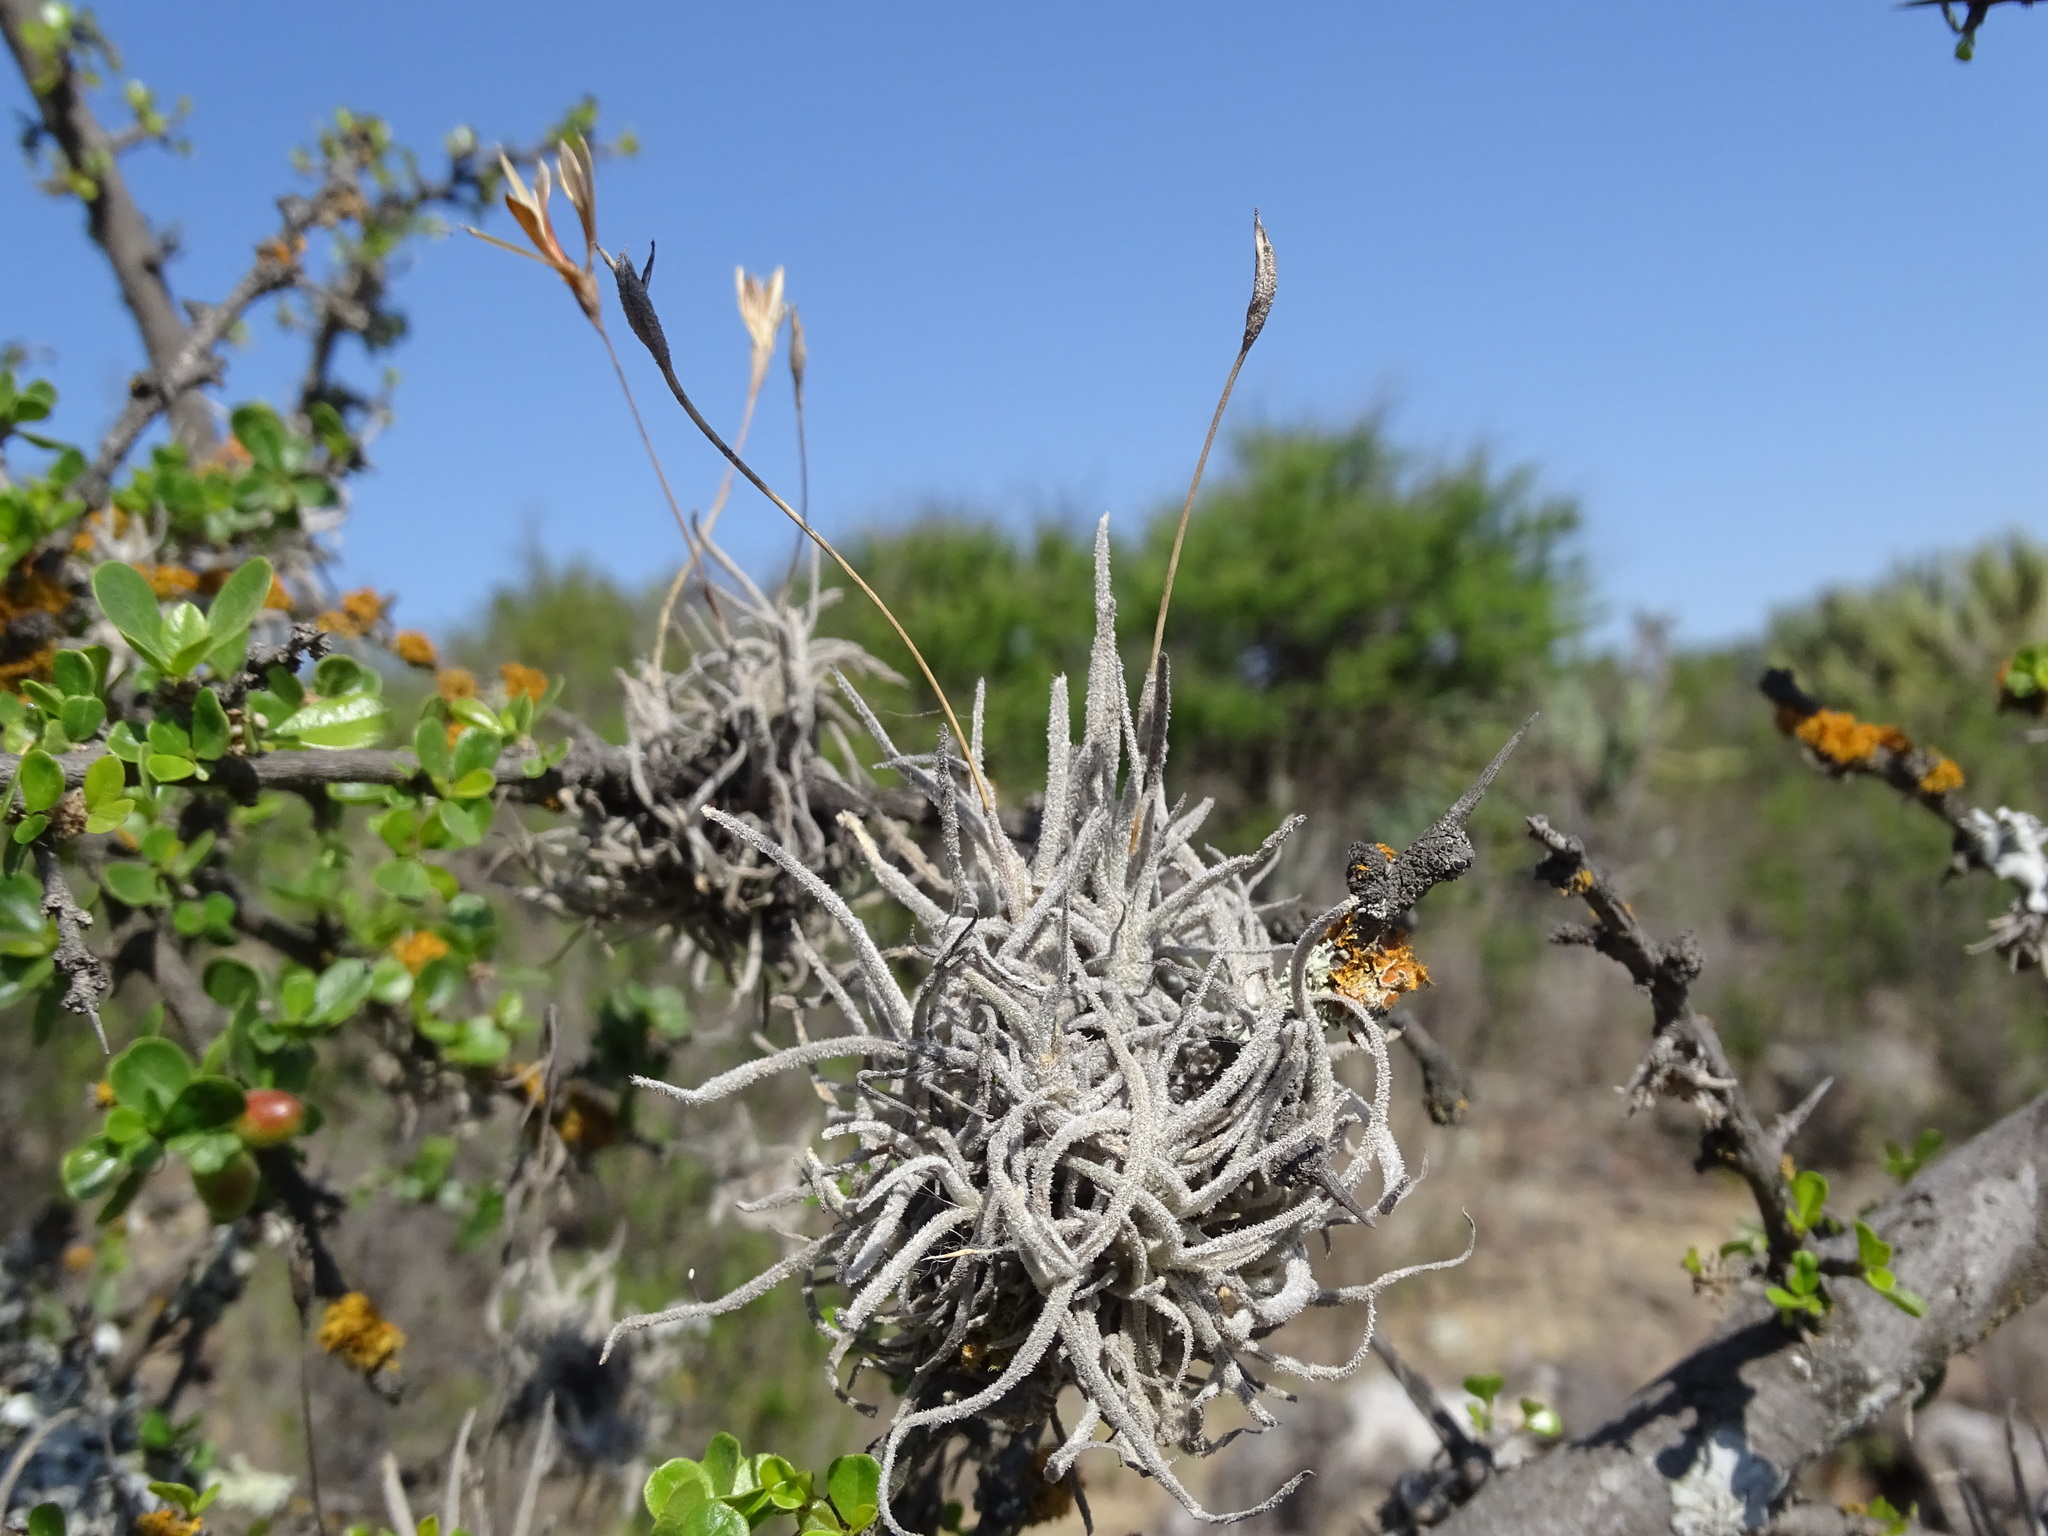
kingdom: Plantae
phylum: Tracheophyta
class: Liliopsida
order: Poales
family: Bromeliaceae
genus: Tillandsia
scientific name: Tillandsia recurvata
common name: Small ballmoss
